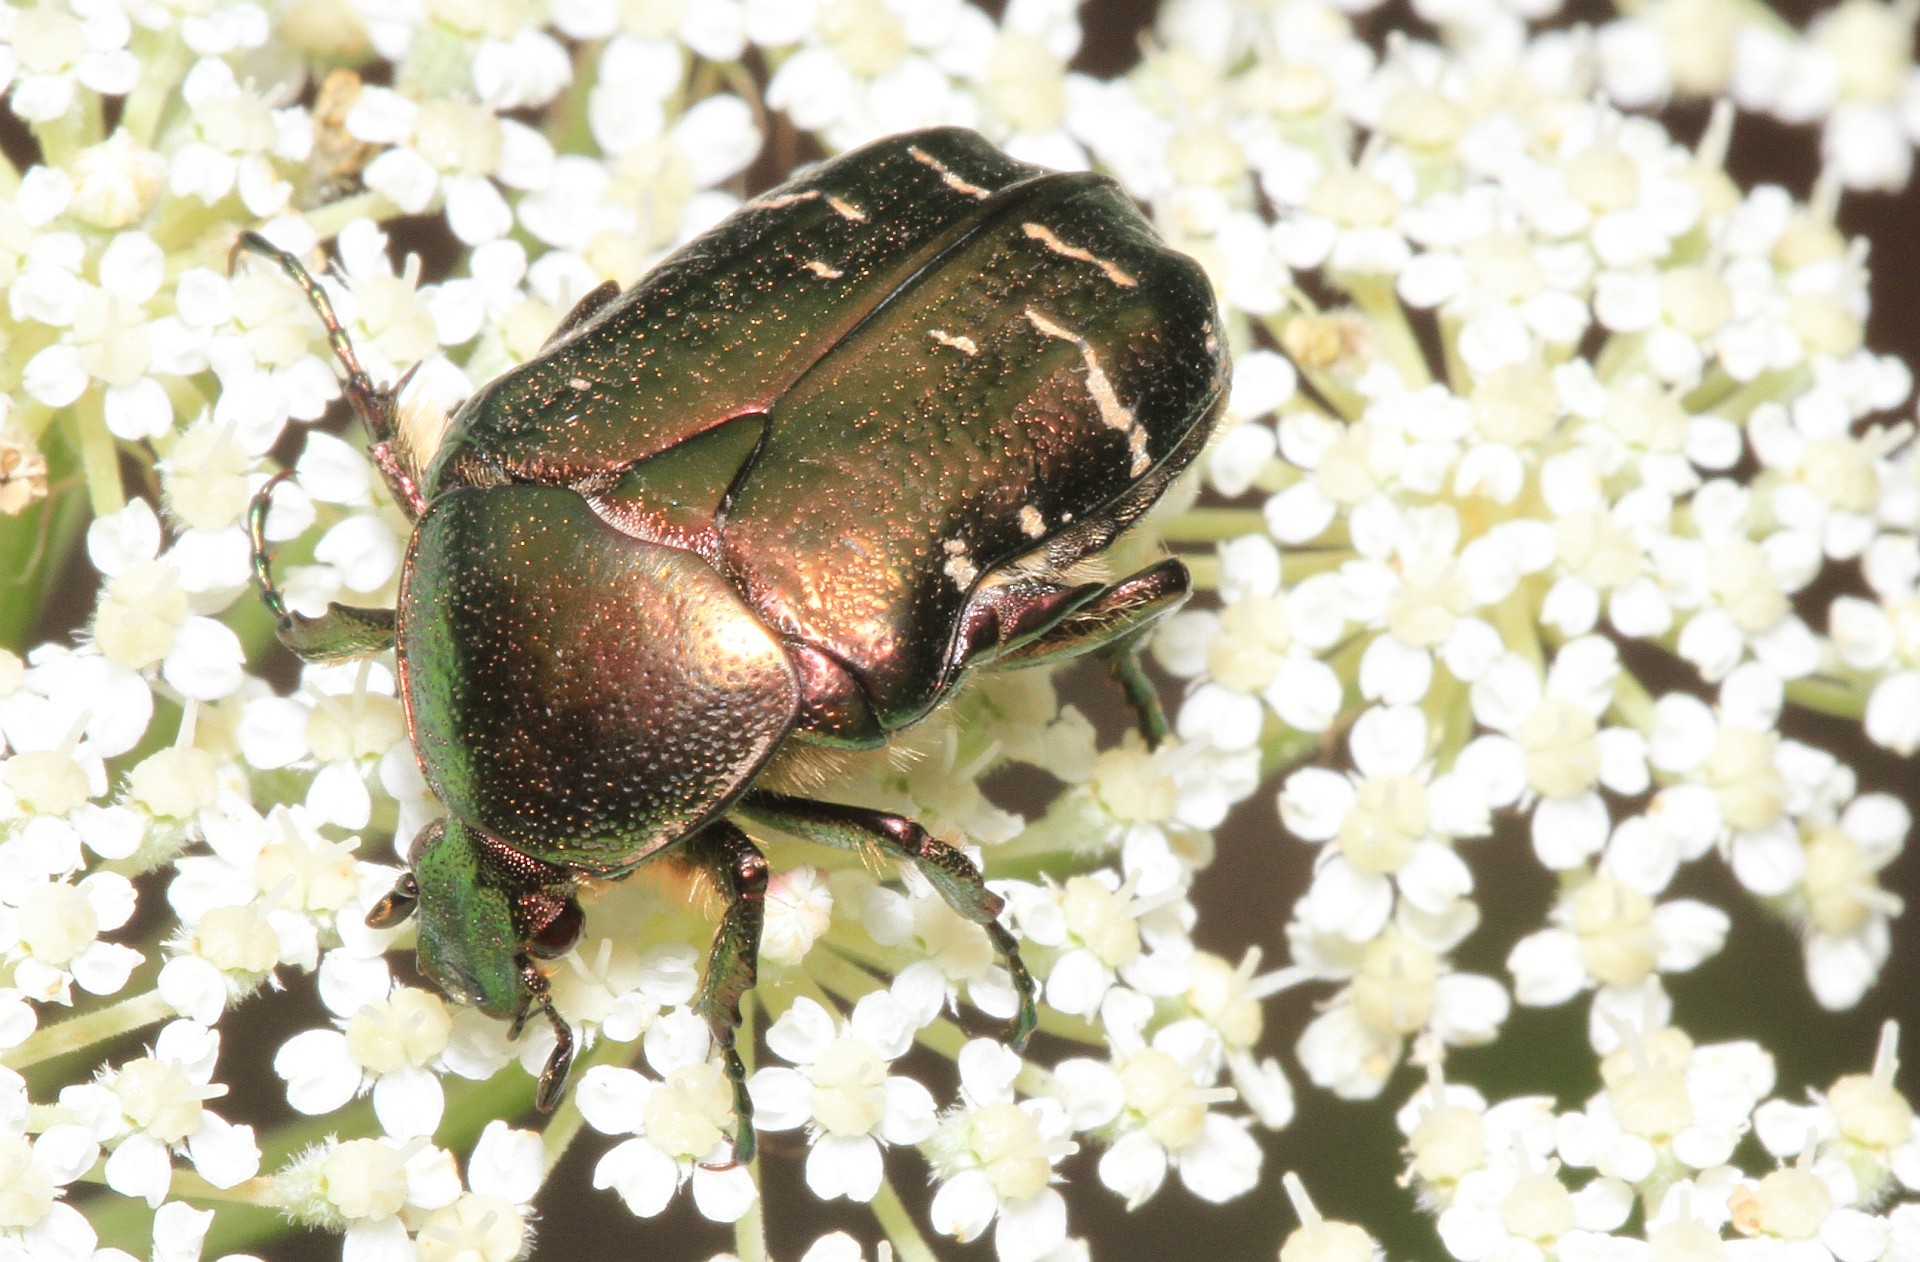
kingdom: Animalia
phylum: Arthropoda
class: Insecta
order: Coleoptera
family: Scarabaeidae
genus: Cetonia
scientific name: Cetonia aurata
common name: Rose chafer
